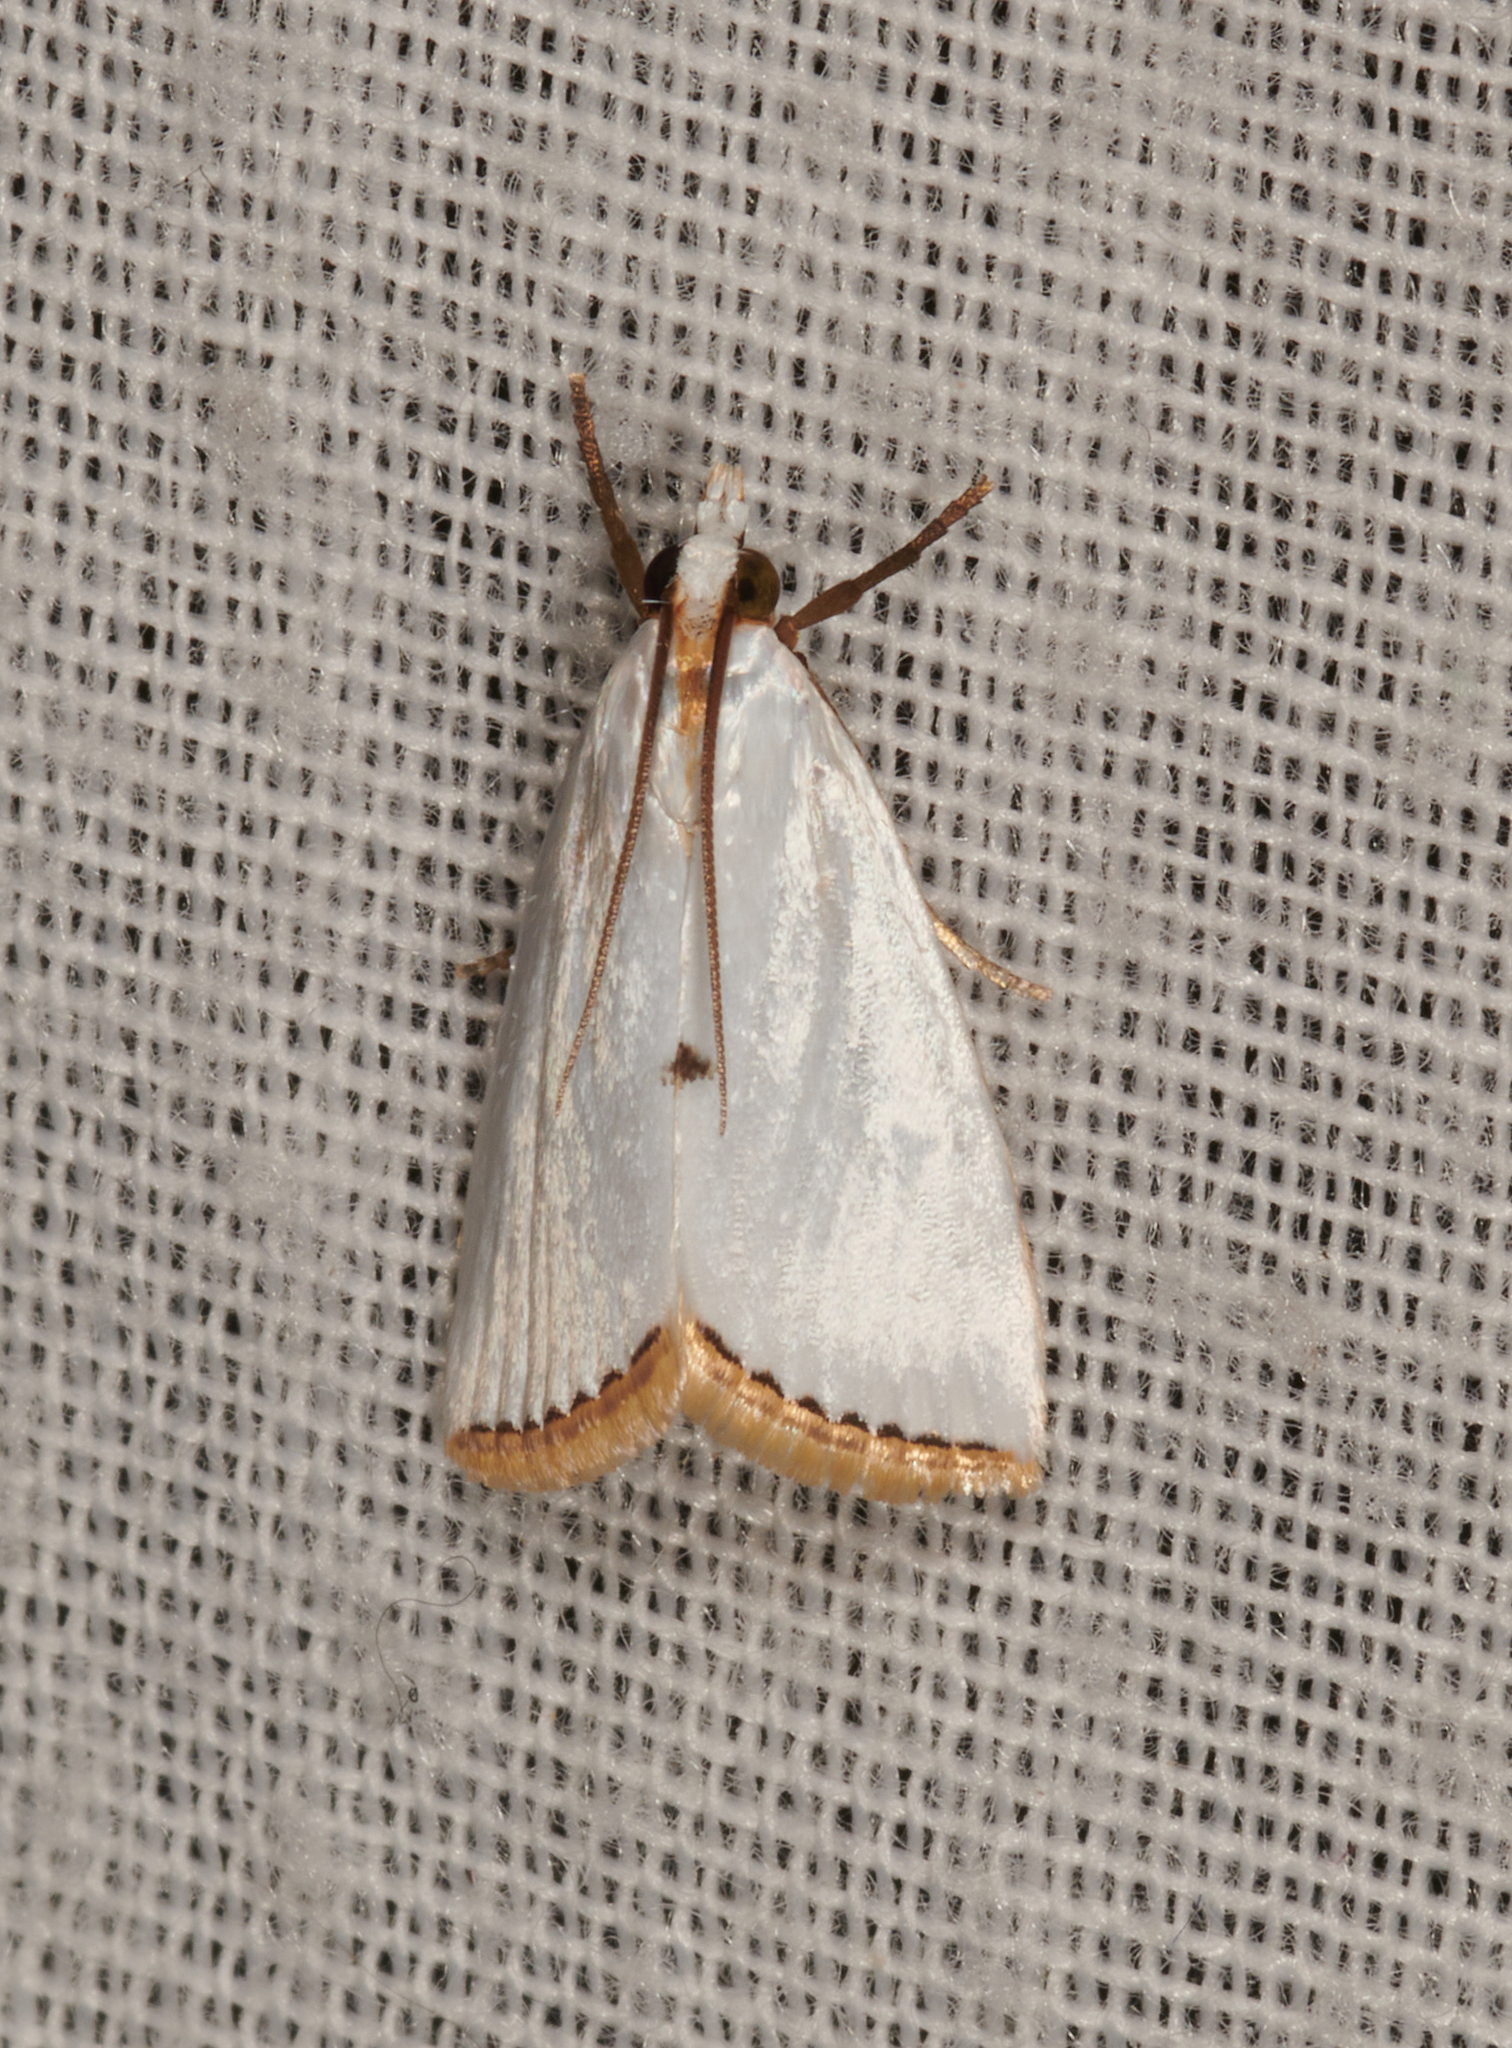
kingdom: Animalia
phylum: Arthropoda
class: Insecta
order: Lepidoptera
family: Crambidae
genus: Argyria
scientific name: Argyria nivalis
